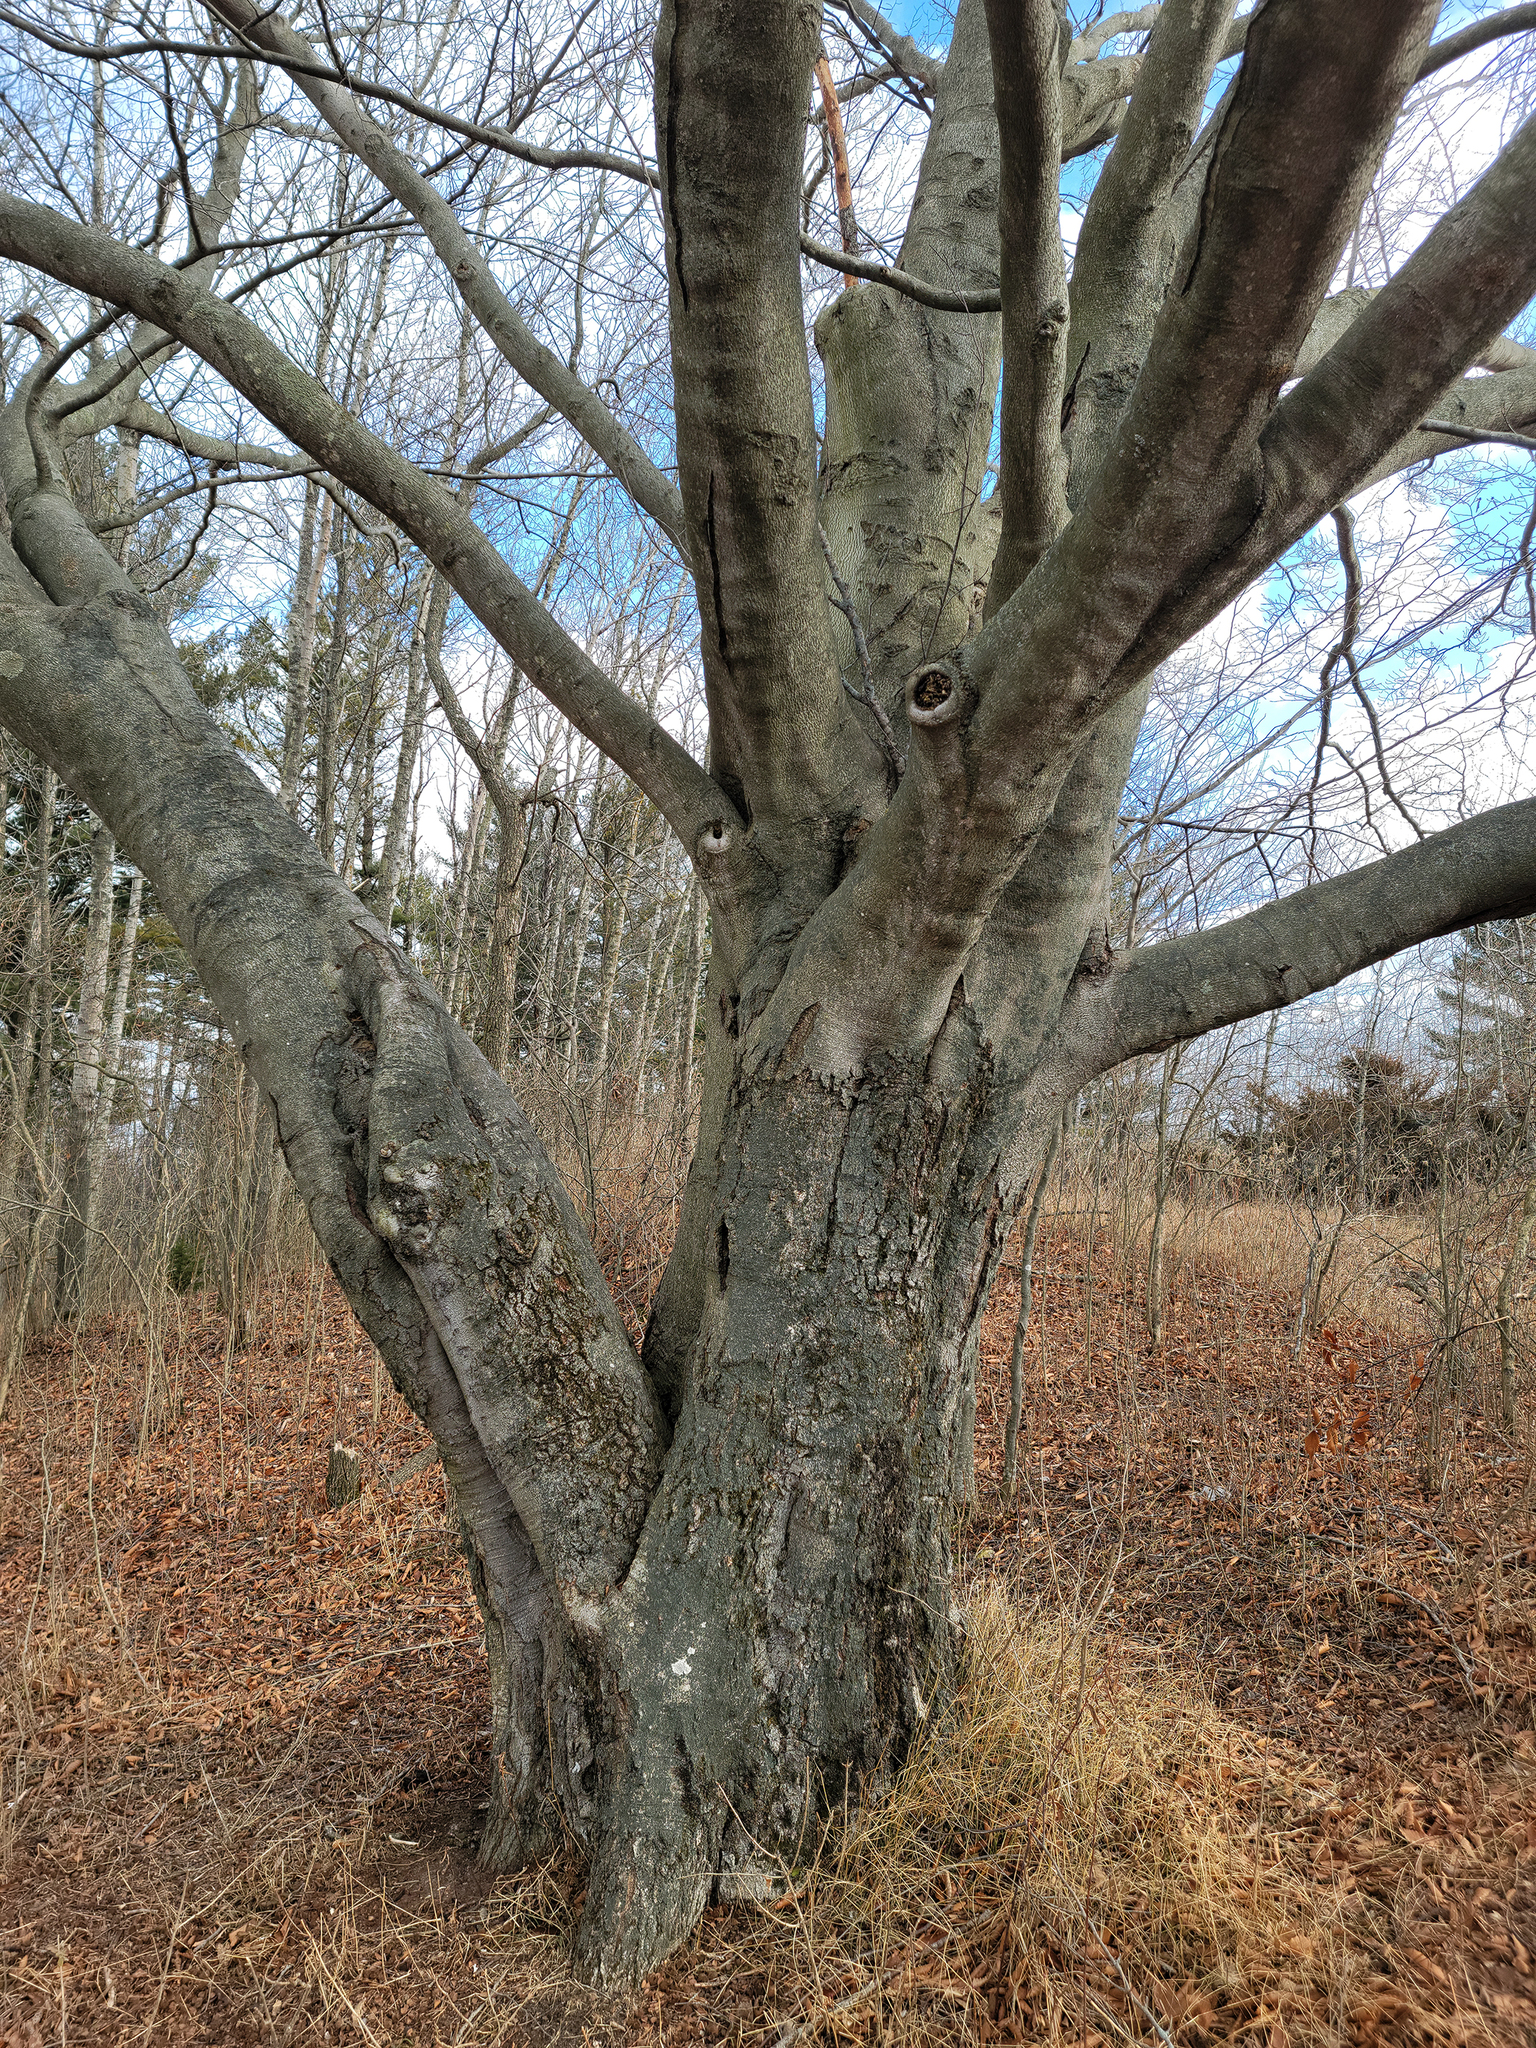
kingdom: Plantae
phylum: Tracheophyta
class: Magnoliopsida
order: Fagales
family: Fagaceae
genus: Fagus
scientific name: Fagus grandifolia
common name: American beech
